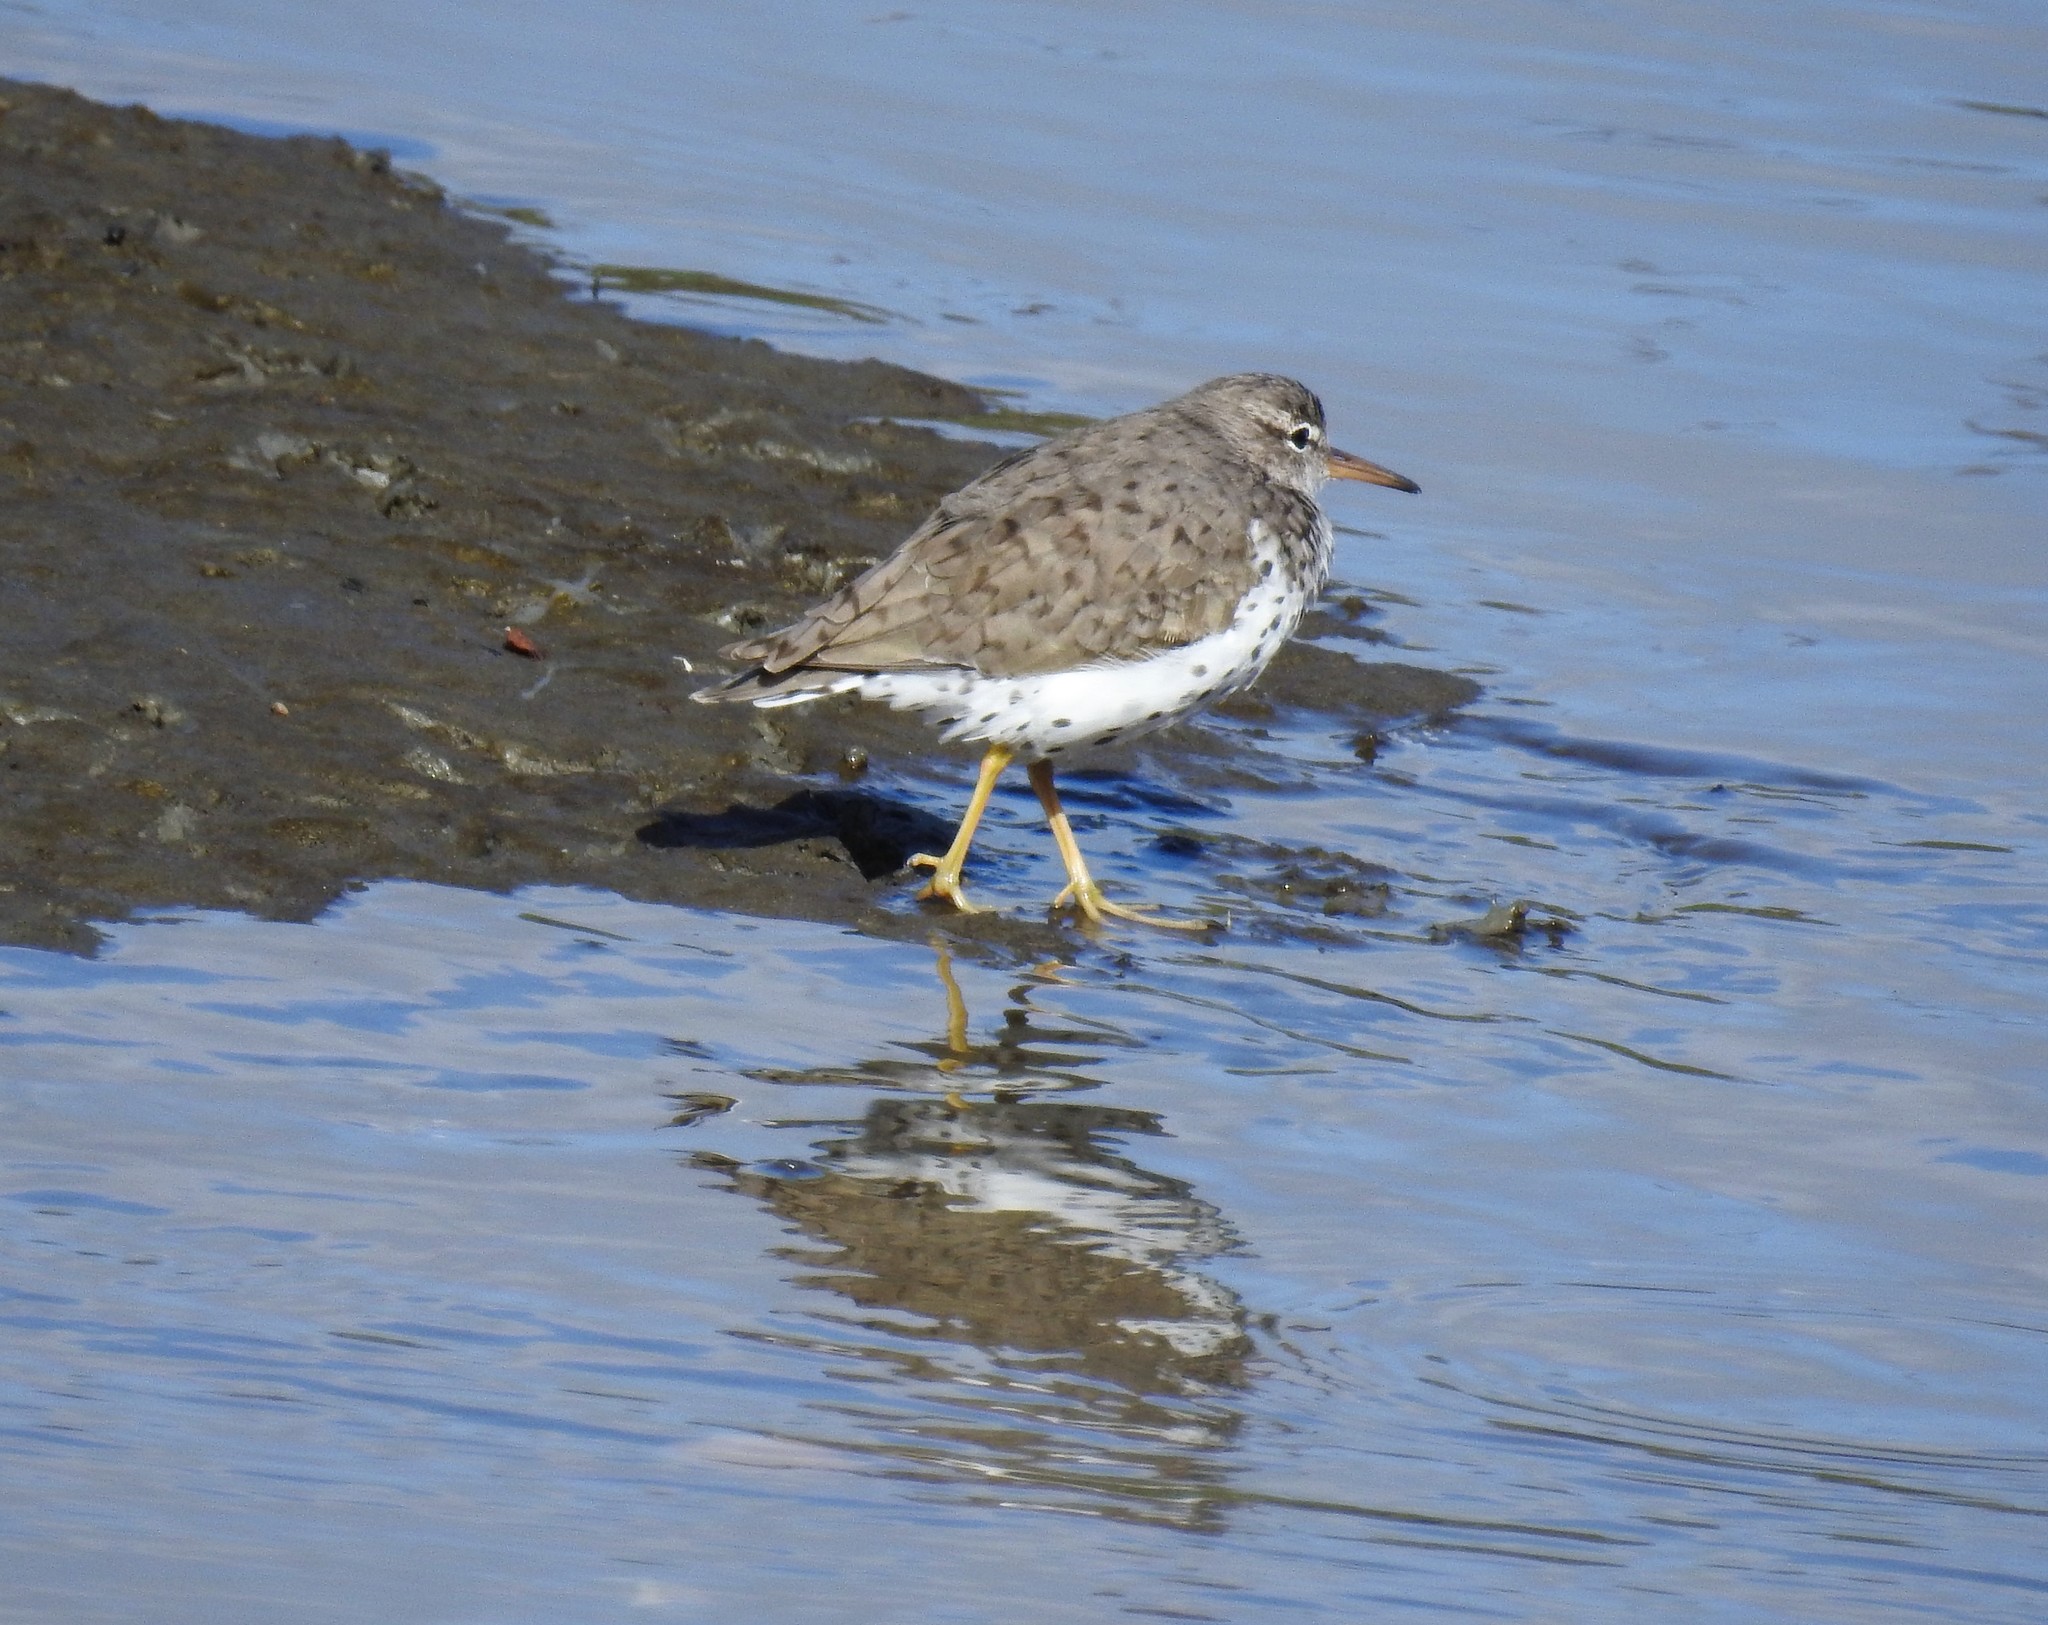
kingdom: Animalia
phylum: Chordata
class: Aves
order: Charadriiformes
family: Scolopacidae
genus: Actitis
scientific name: Actitis macularius
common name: Spotted sandpiper
